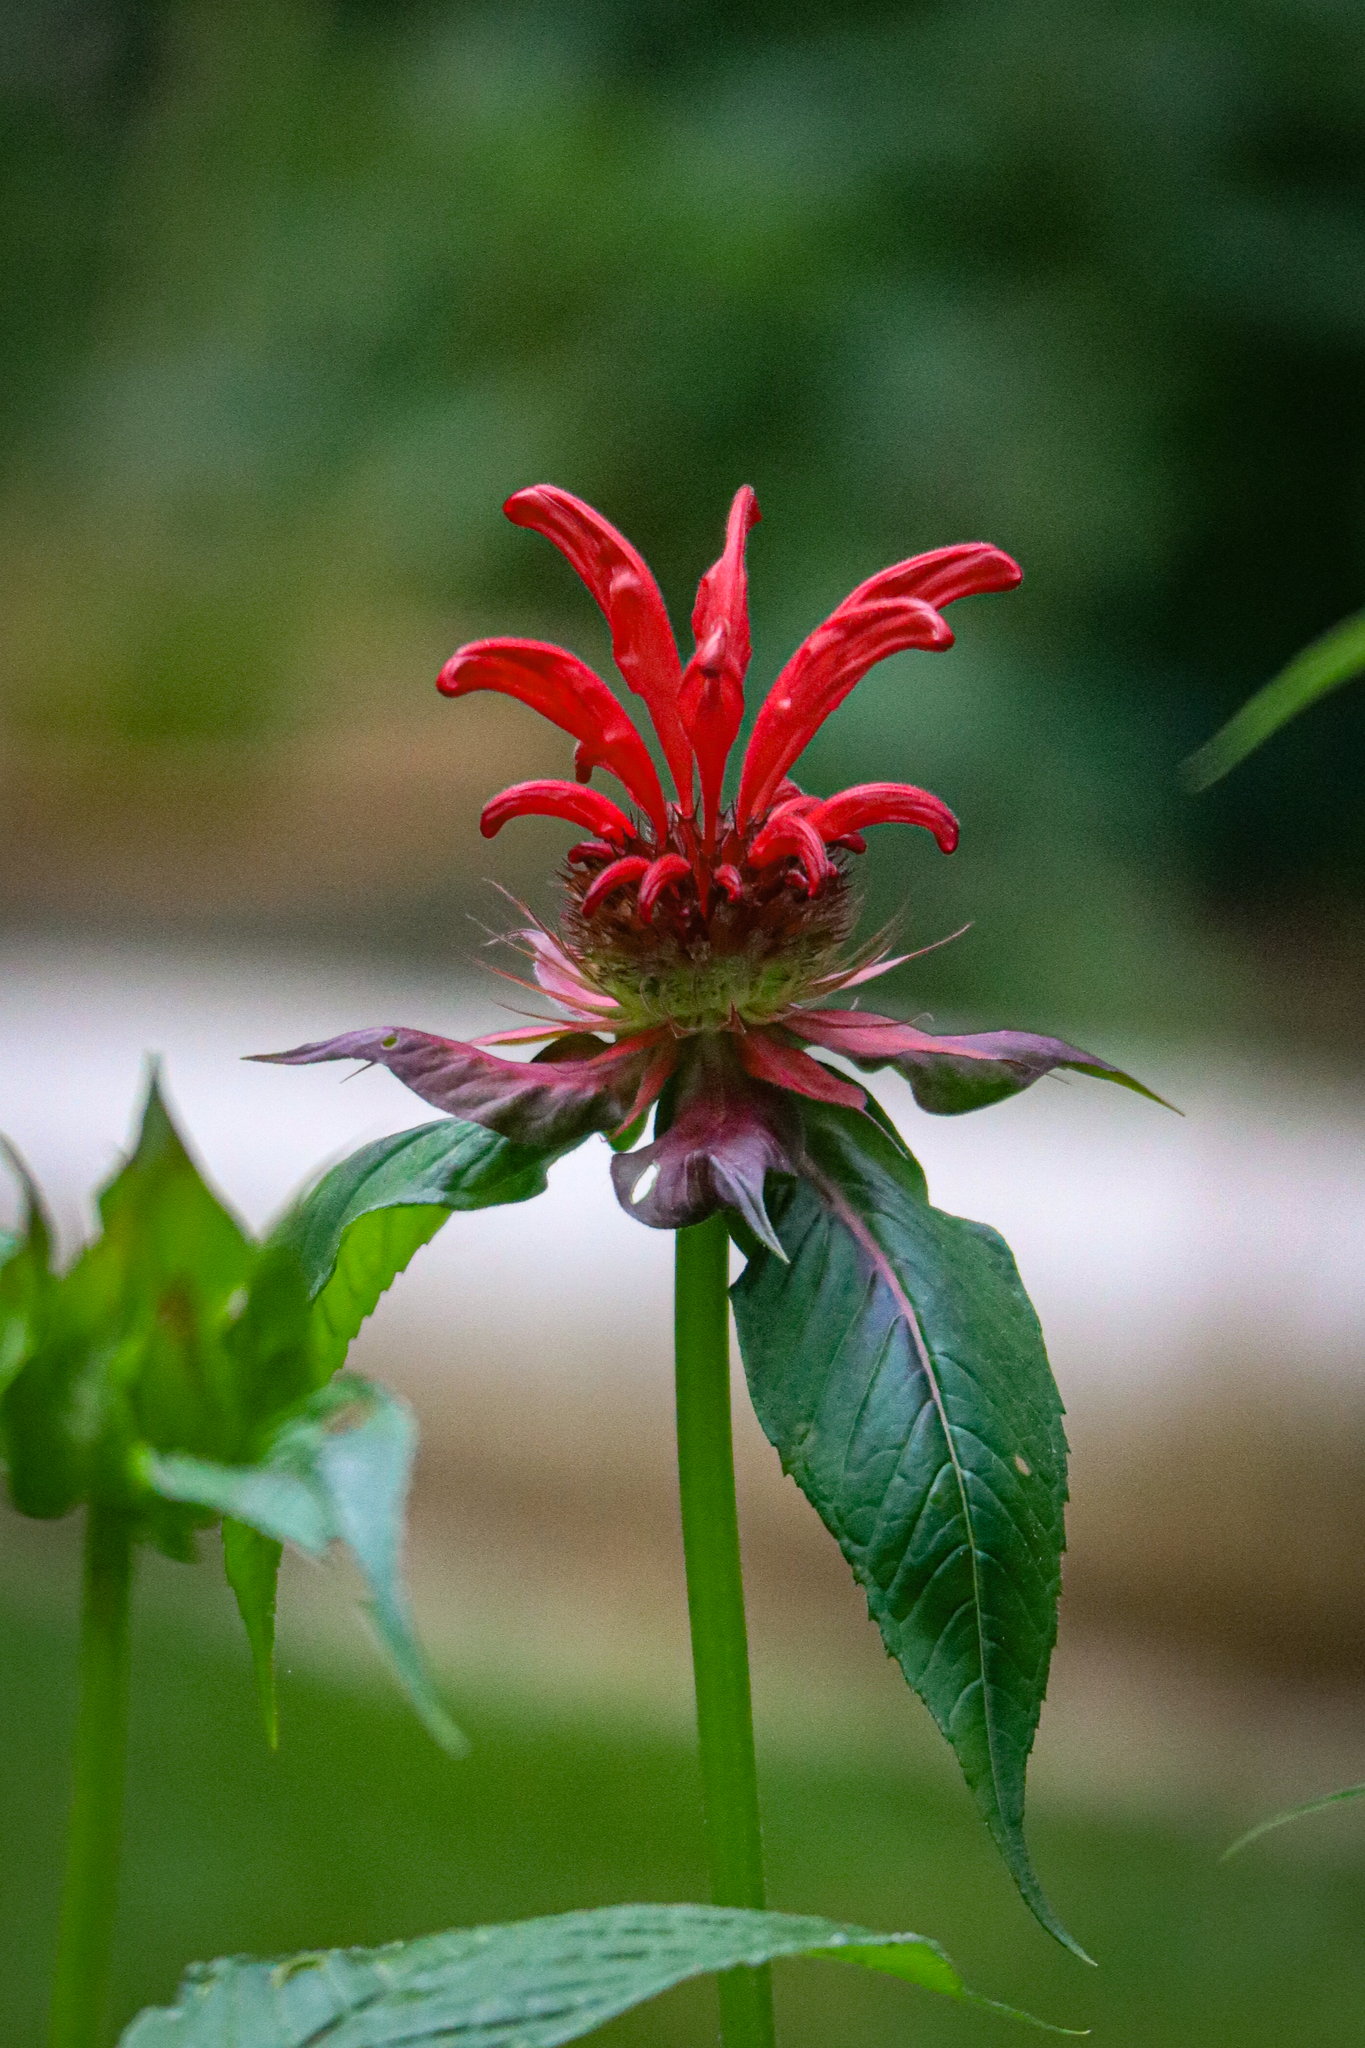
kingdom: Plantae
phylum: Tracheophyta
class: Magnoliopsida
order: Lamiales
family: Lamiaceae
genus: Monarda
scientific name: Monarda didyma
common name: Beebalm
